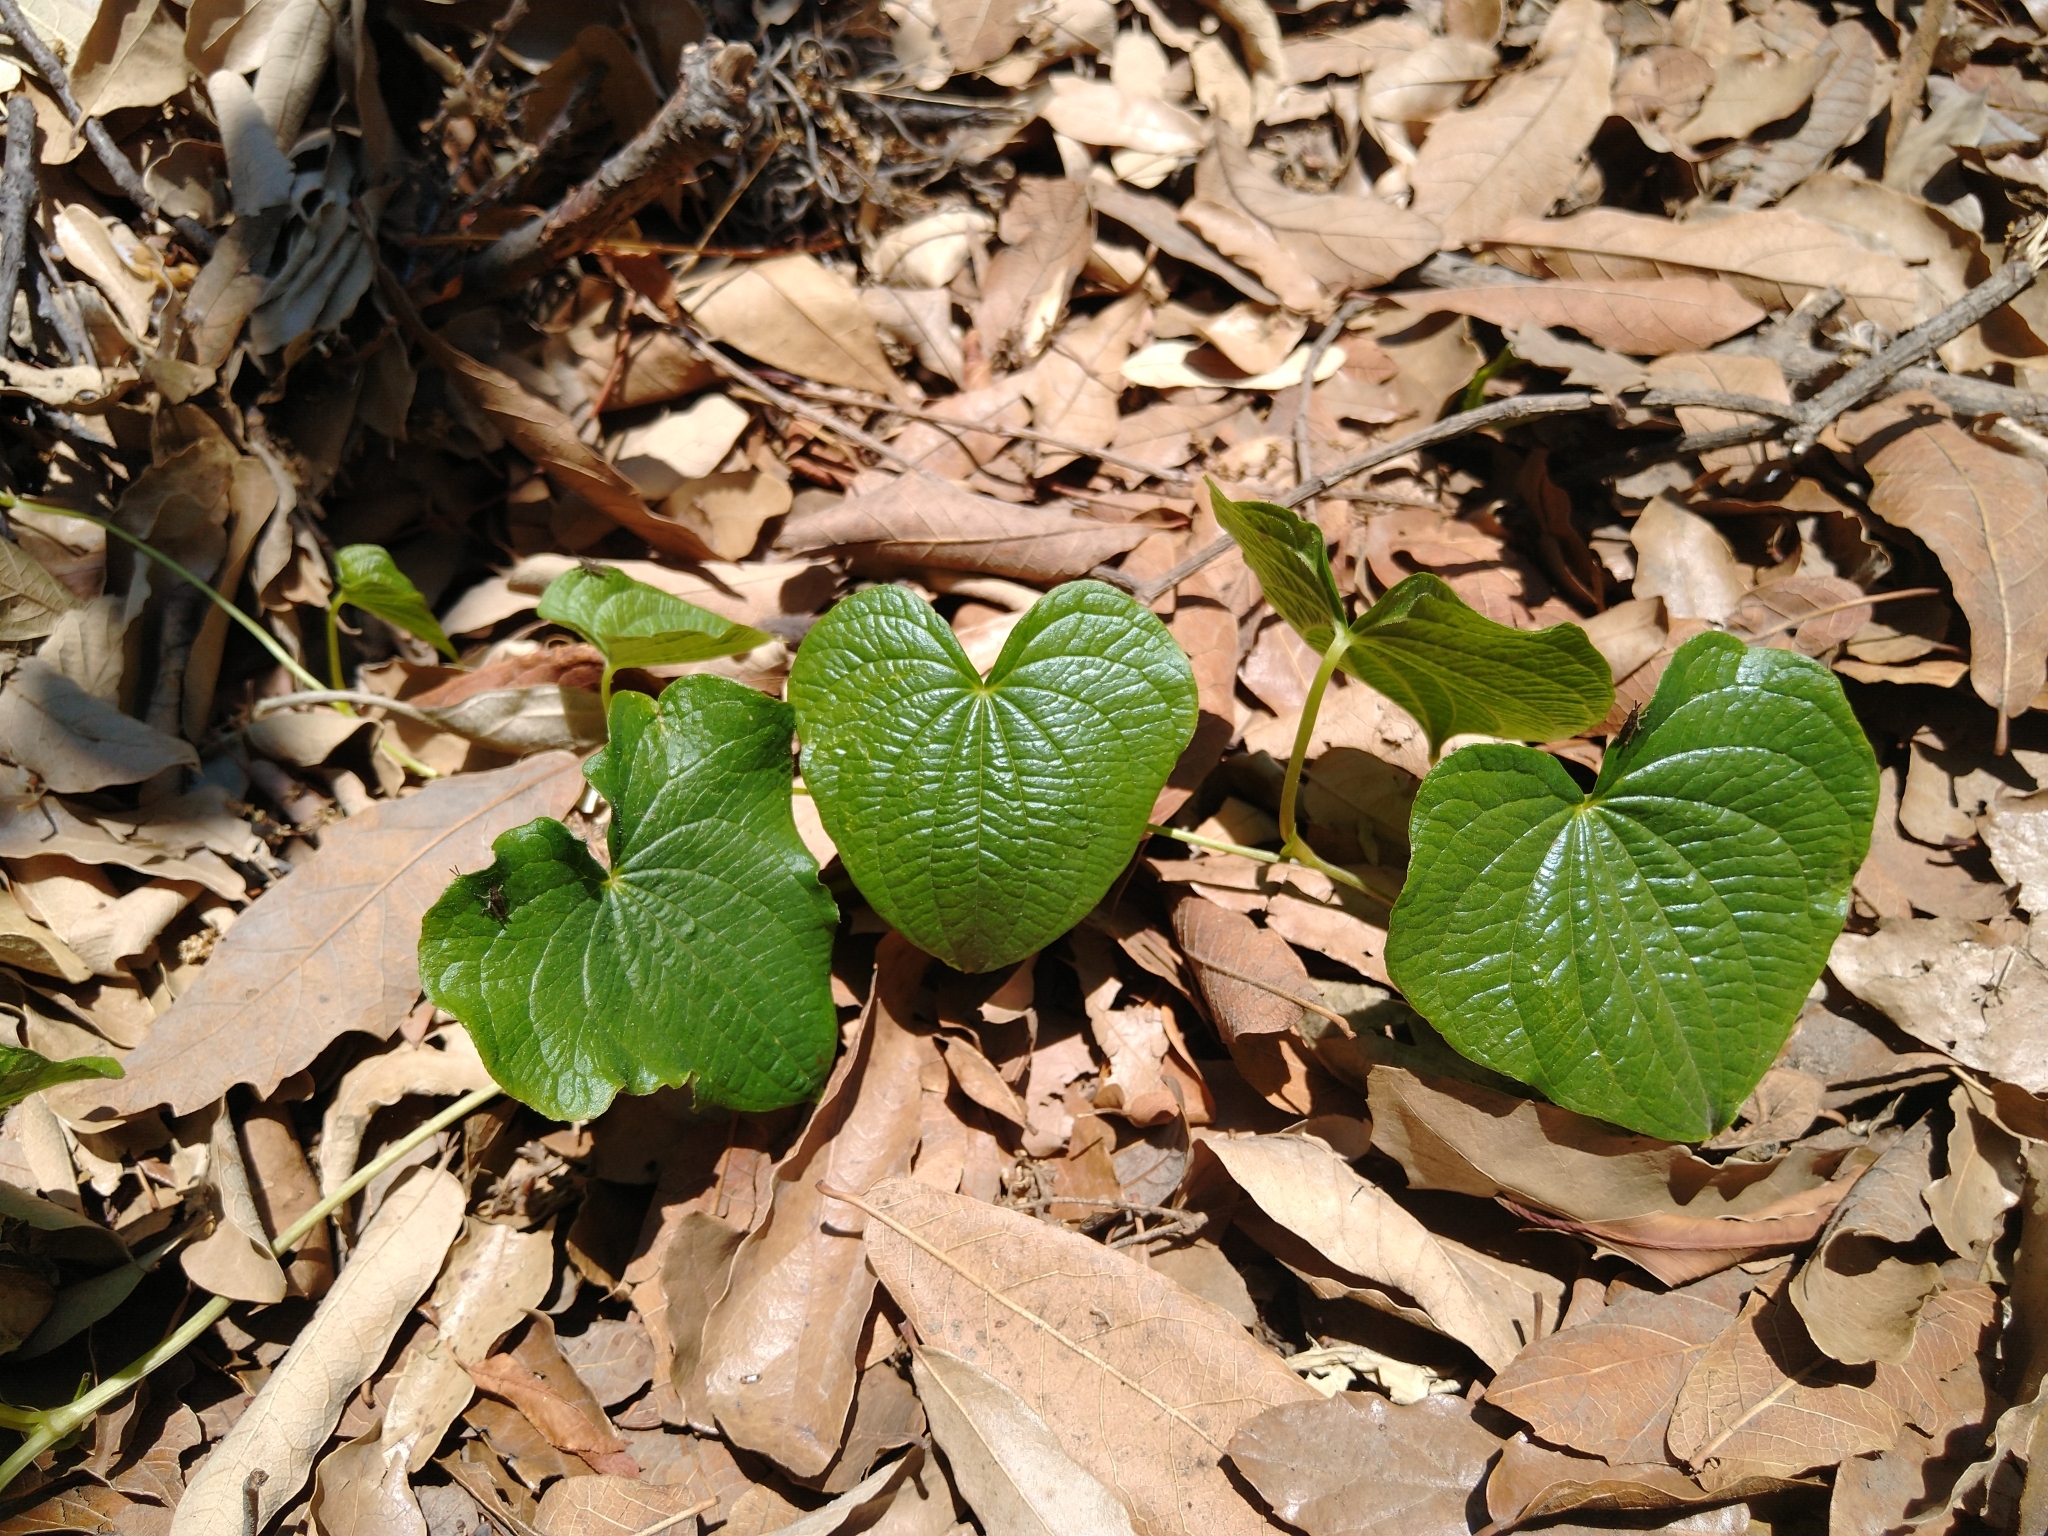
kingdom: Plantae
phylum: Tracheophyta
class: Liliopsida
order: Dioscoreales
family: Dioscoreaceae
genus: Dioscorea
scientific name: Dioscorea galeottiana
